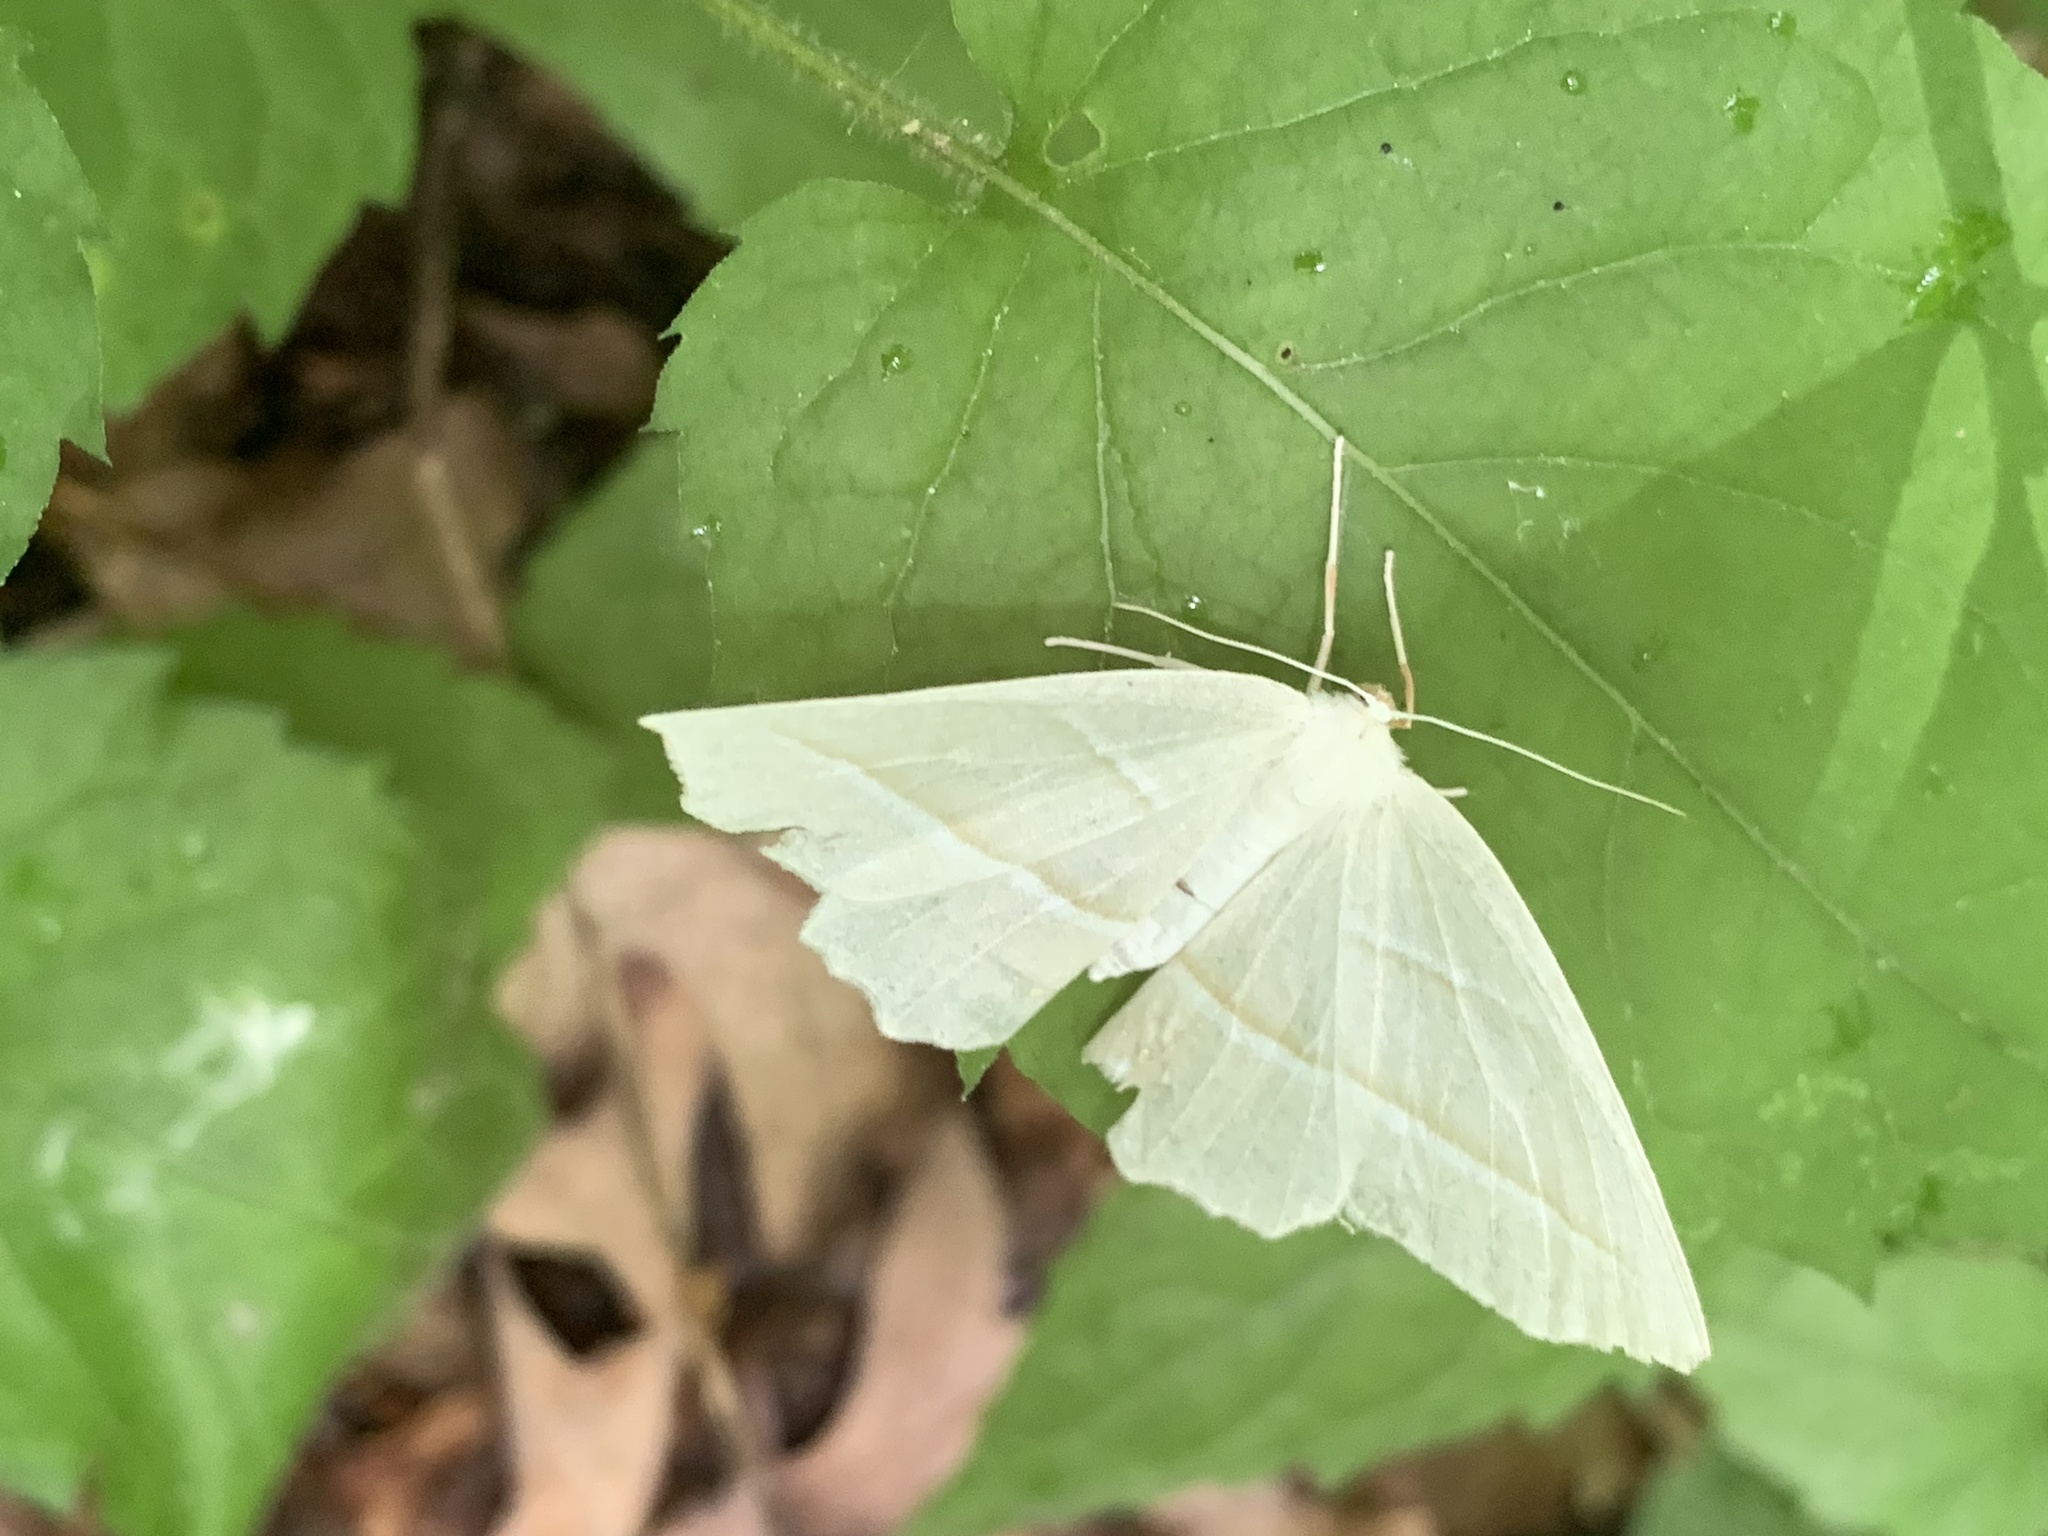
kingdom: Animalia
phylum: Arthropoda
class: Insecta
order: Lepidoptera
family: Geometridae
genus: Campaea
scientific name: Campaea perlata
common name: Fringed looper
